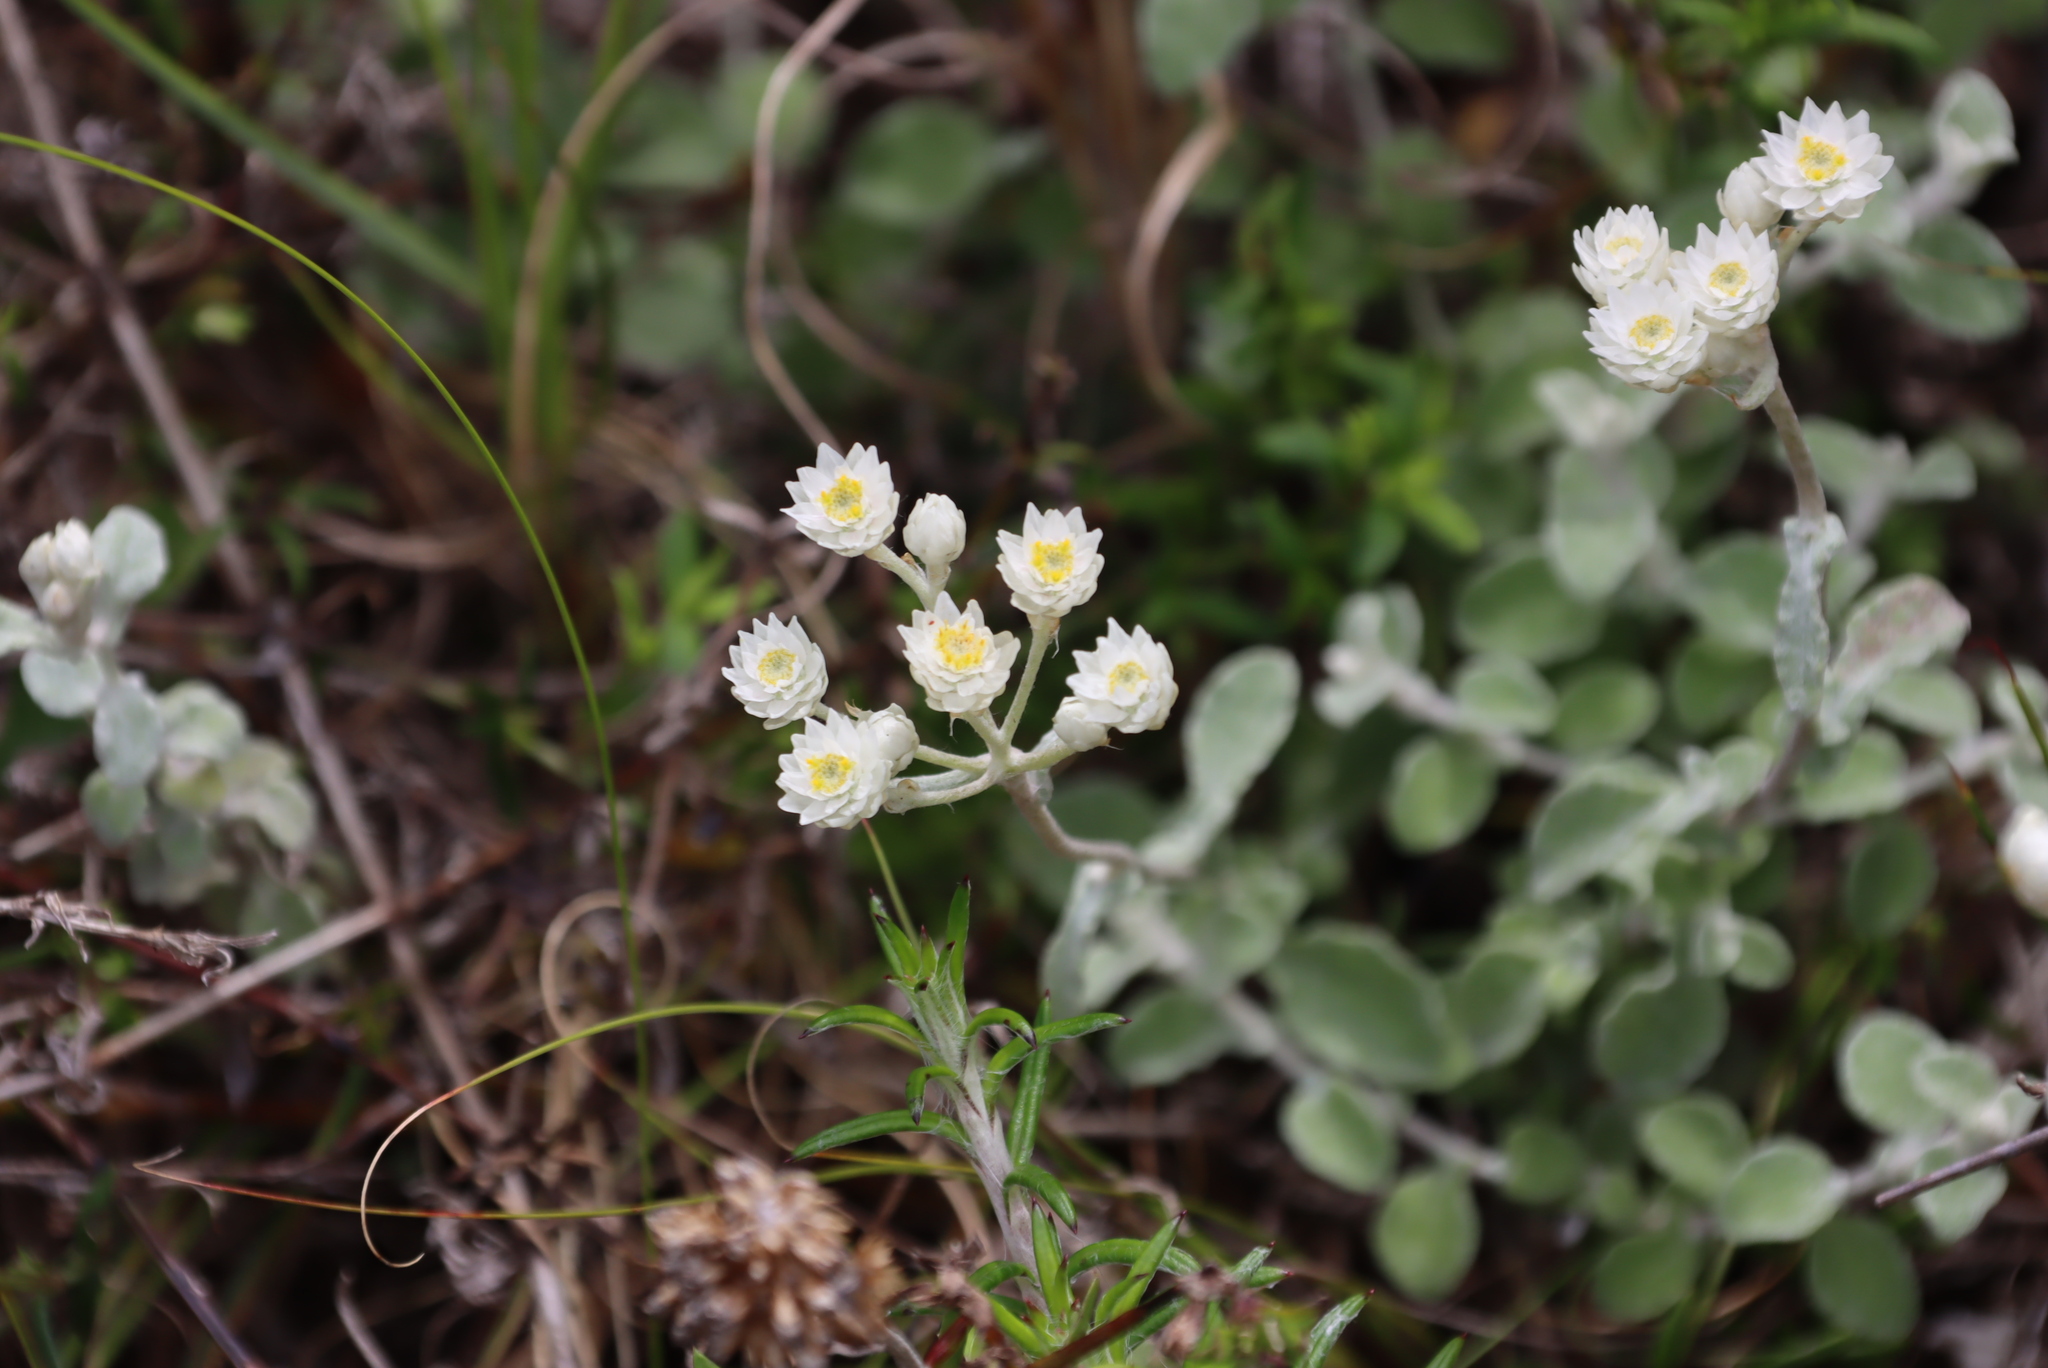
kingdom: Plantae
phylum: Tracheophyta
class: Magnoliopsida
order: Asterales
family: Asteraceae
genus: Helichrysum
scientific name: Helichrysum pandurifolium
